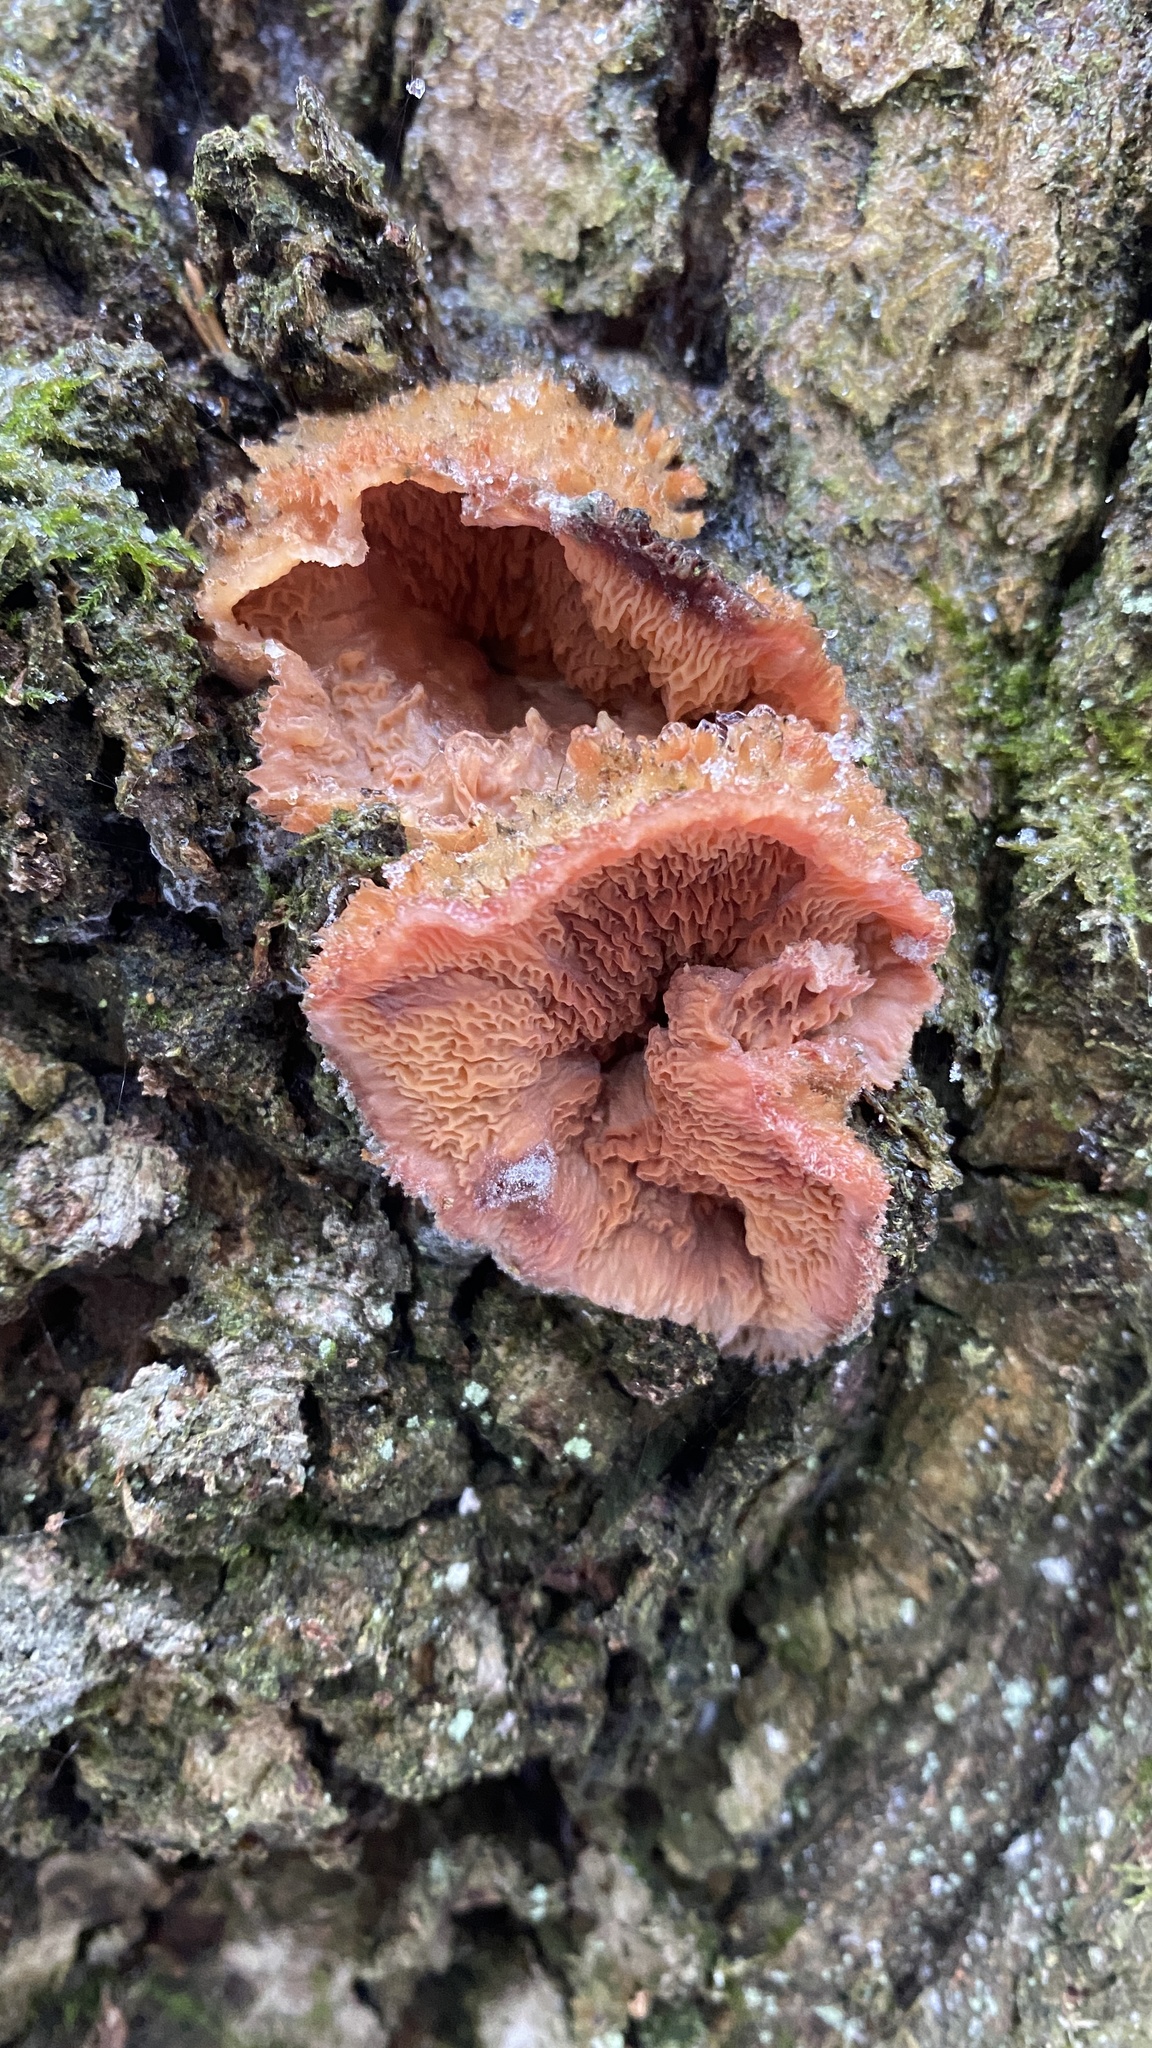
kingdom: Fungi
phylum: Basidiomycota
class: Agaricomycetes
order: Polyporales
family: Meruliaceae
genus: Phlebia
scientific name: Phlebia tremellosa
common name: Jelly rot
